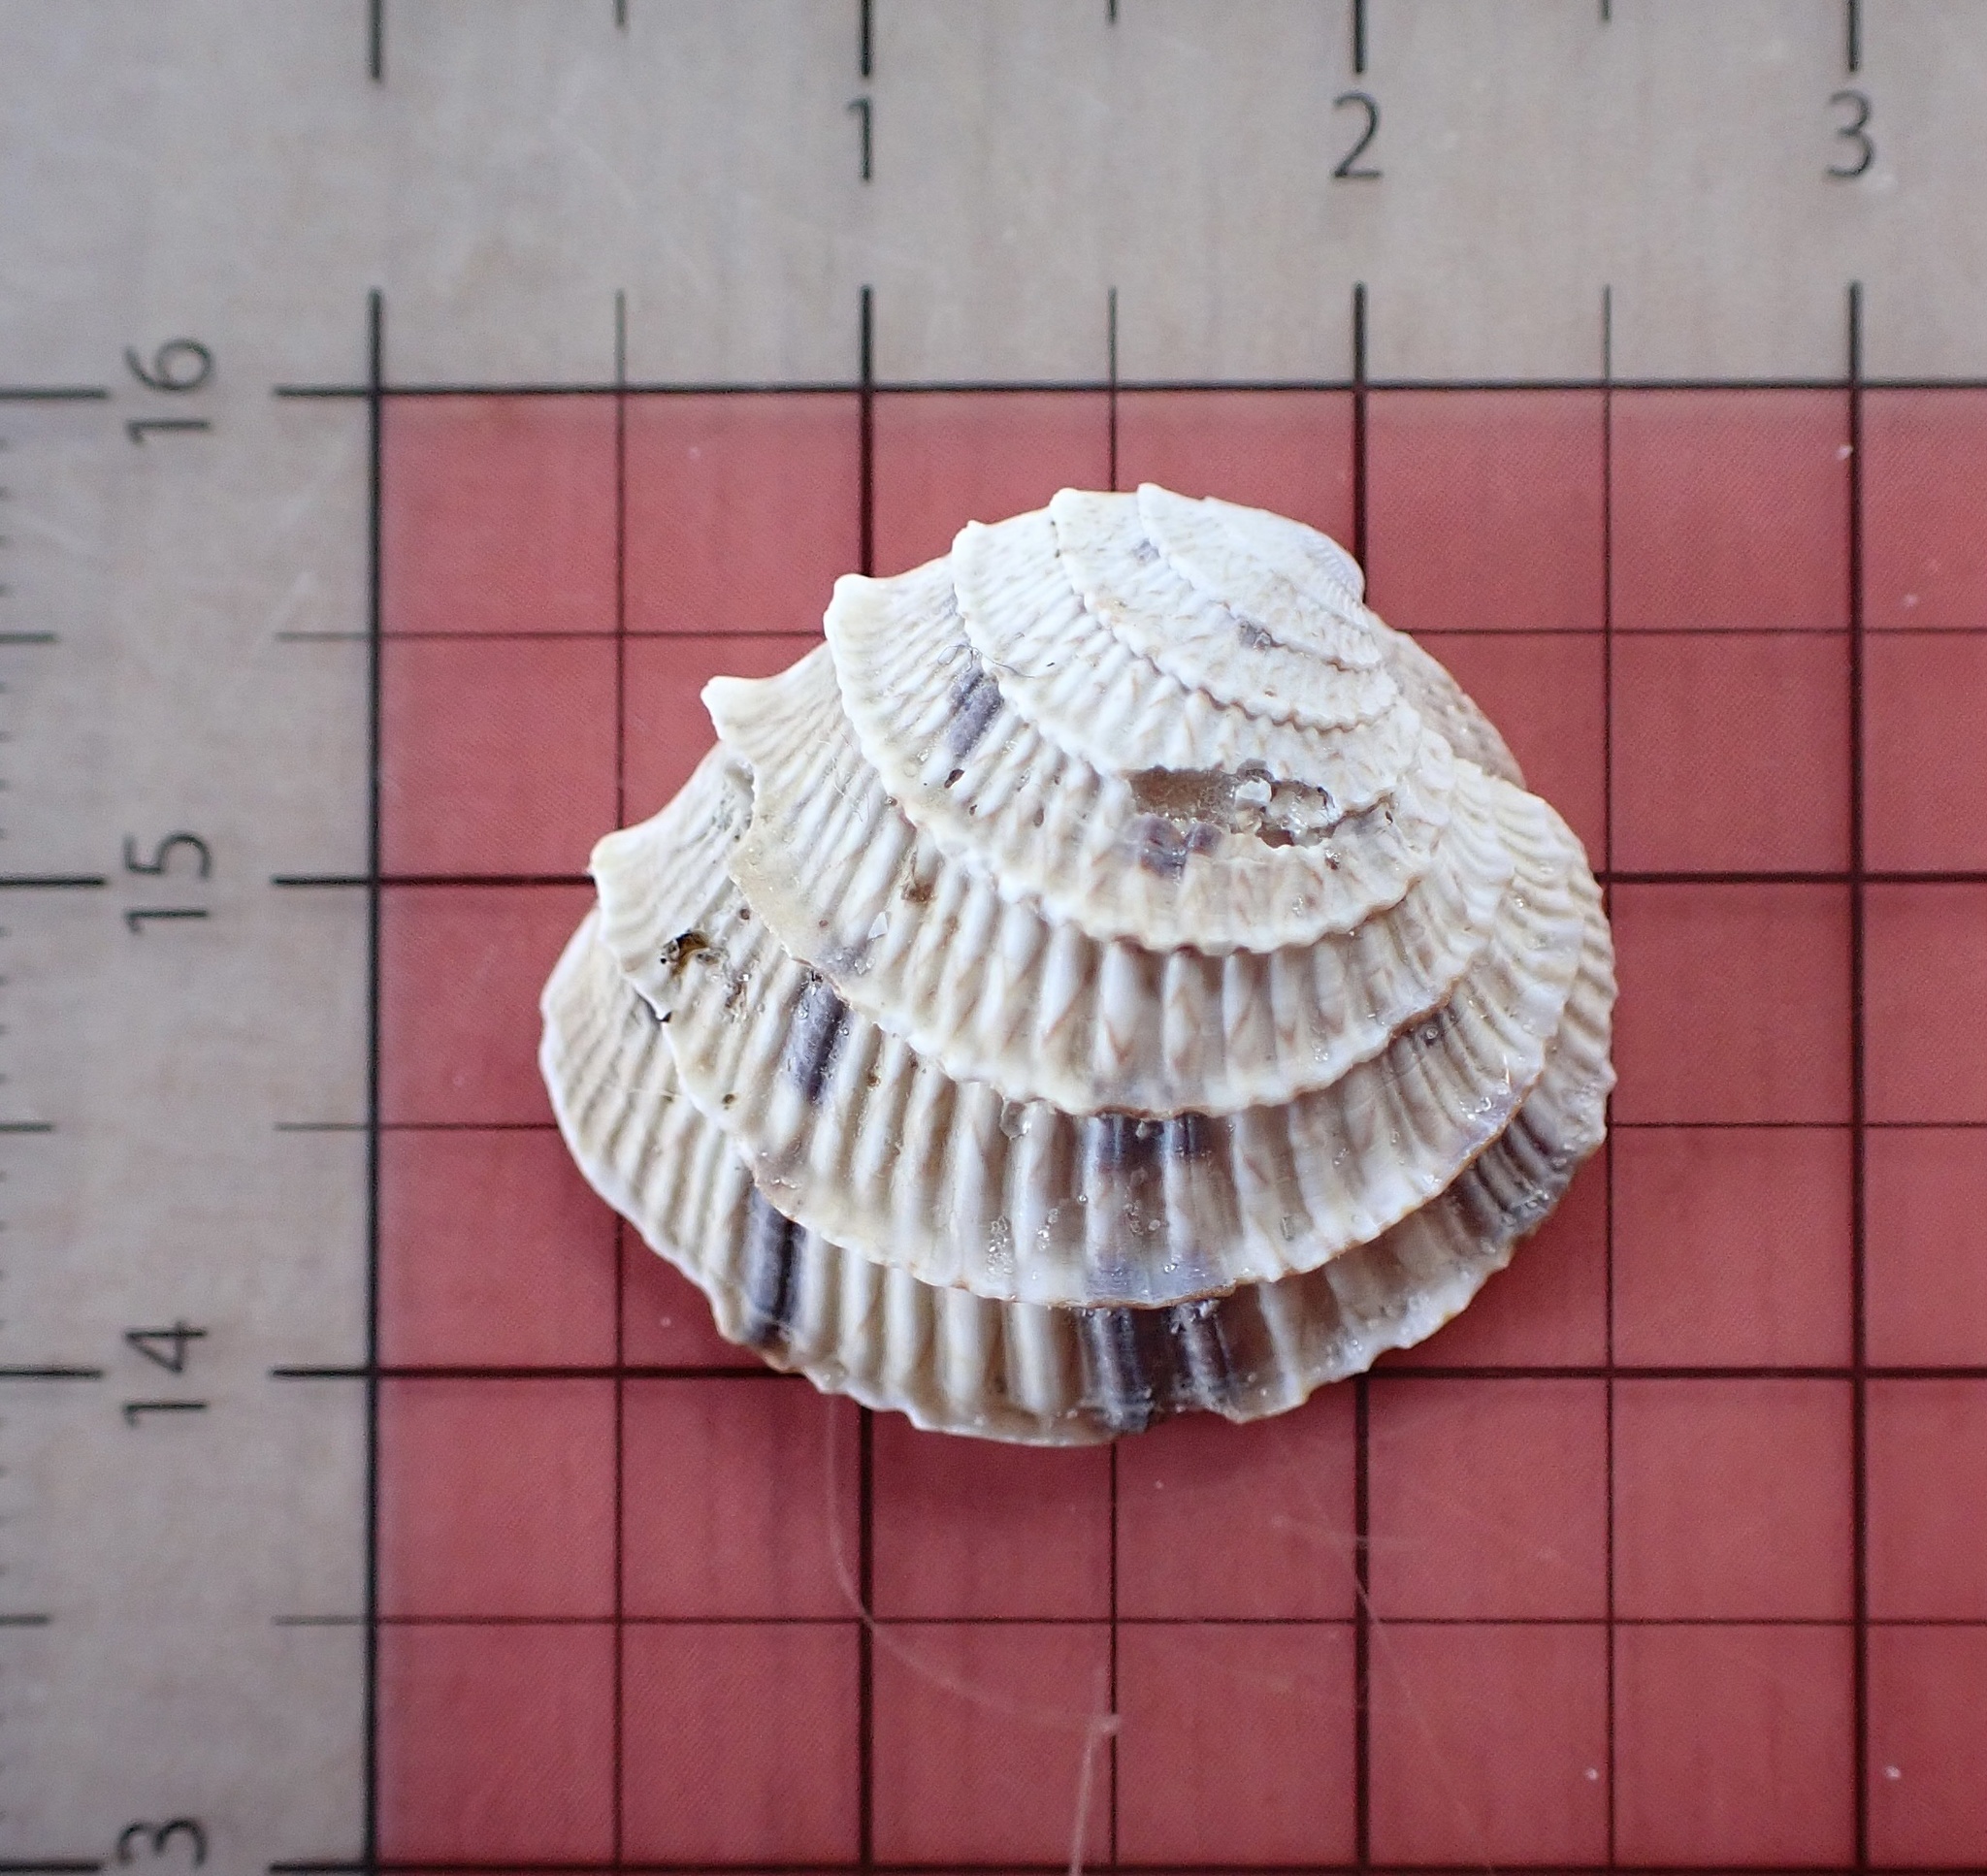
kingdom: Animalia
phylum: Mollusca
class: Bivalvia
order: Venerida
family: Veneridae
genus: Chione
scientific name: Chione elevata
